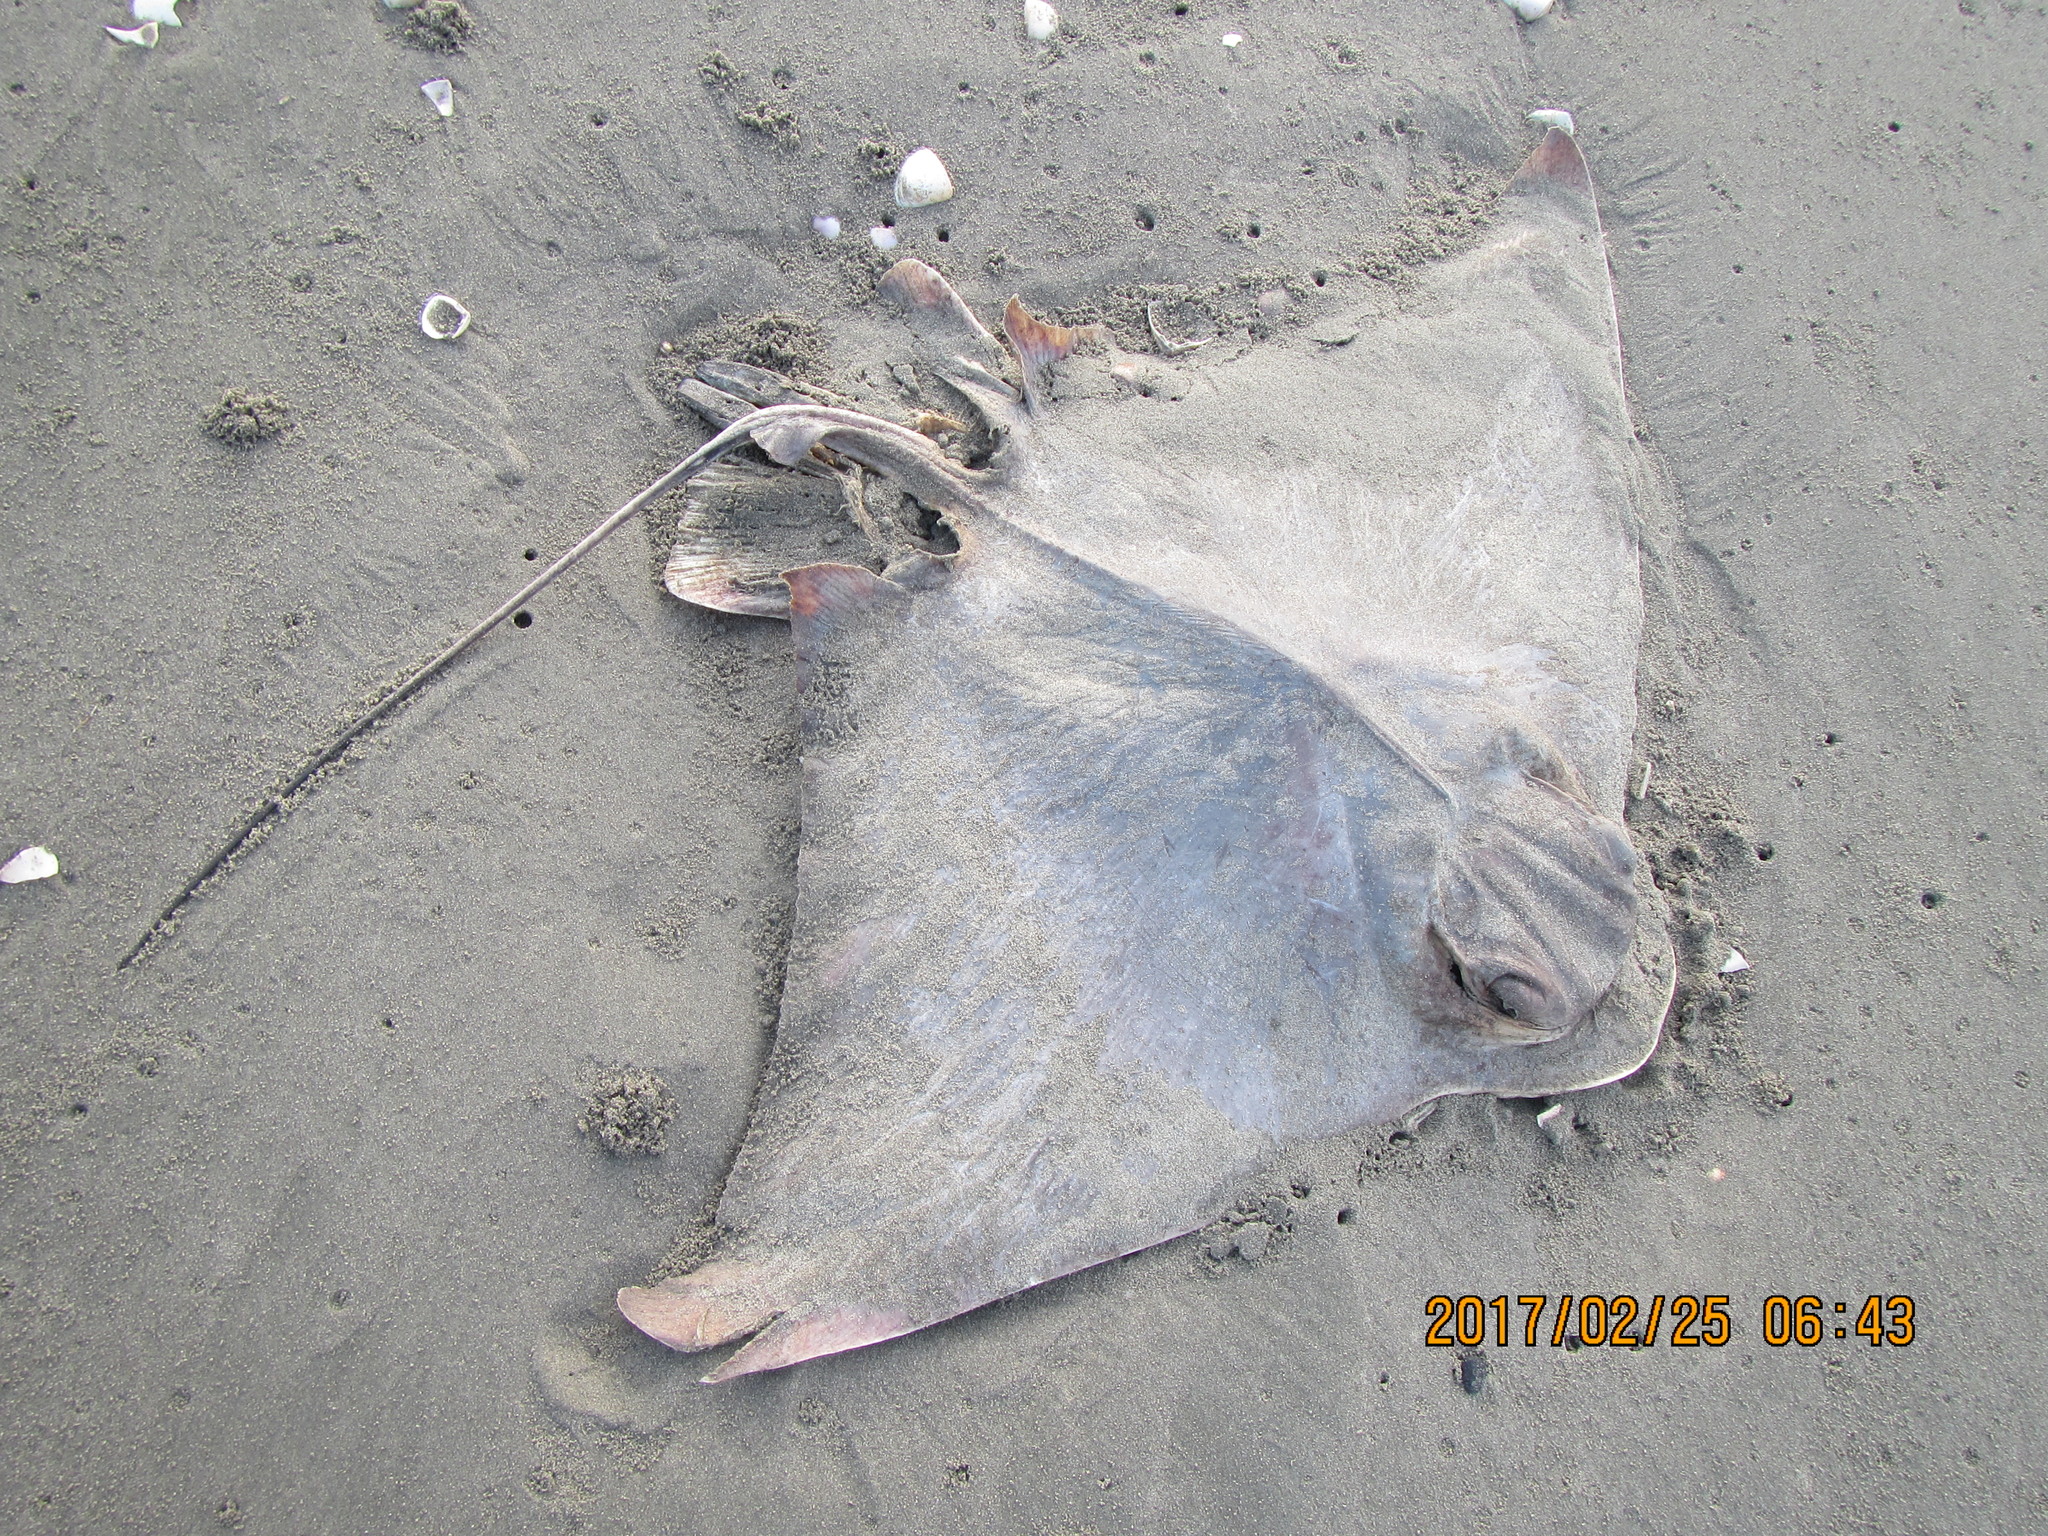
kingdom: Animalia
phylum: Chordata
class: Elasmobranchii
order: Myliobatiformes
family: Myliobatidae
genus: Myliobatis
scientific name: Myliobatis tenuicaudatus
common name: Eagle ray
